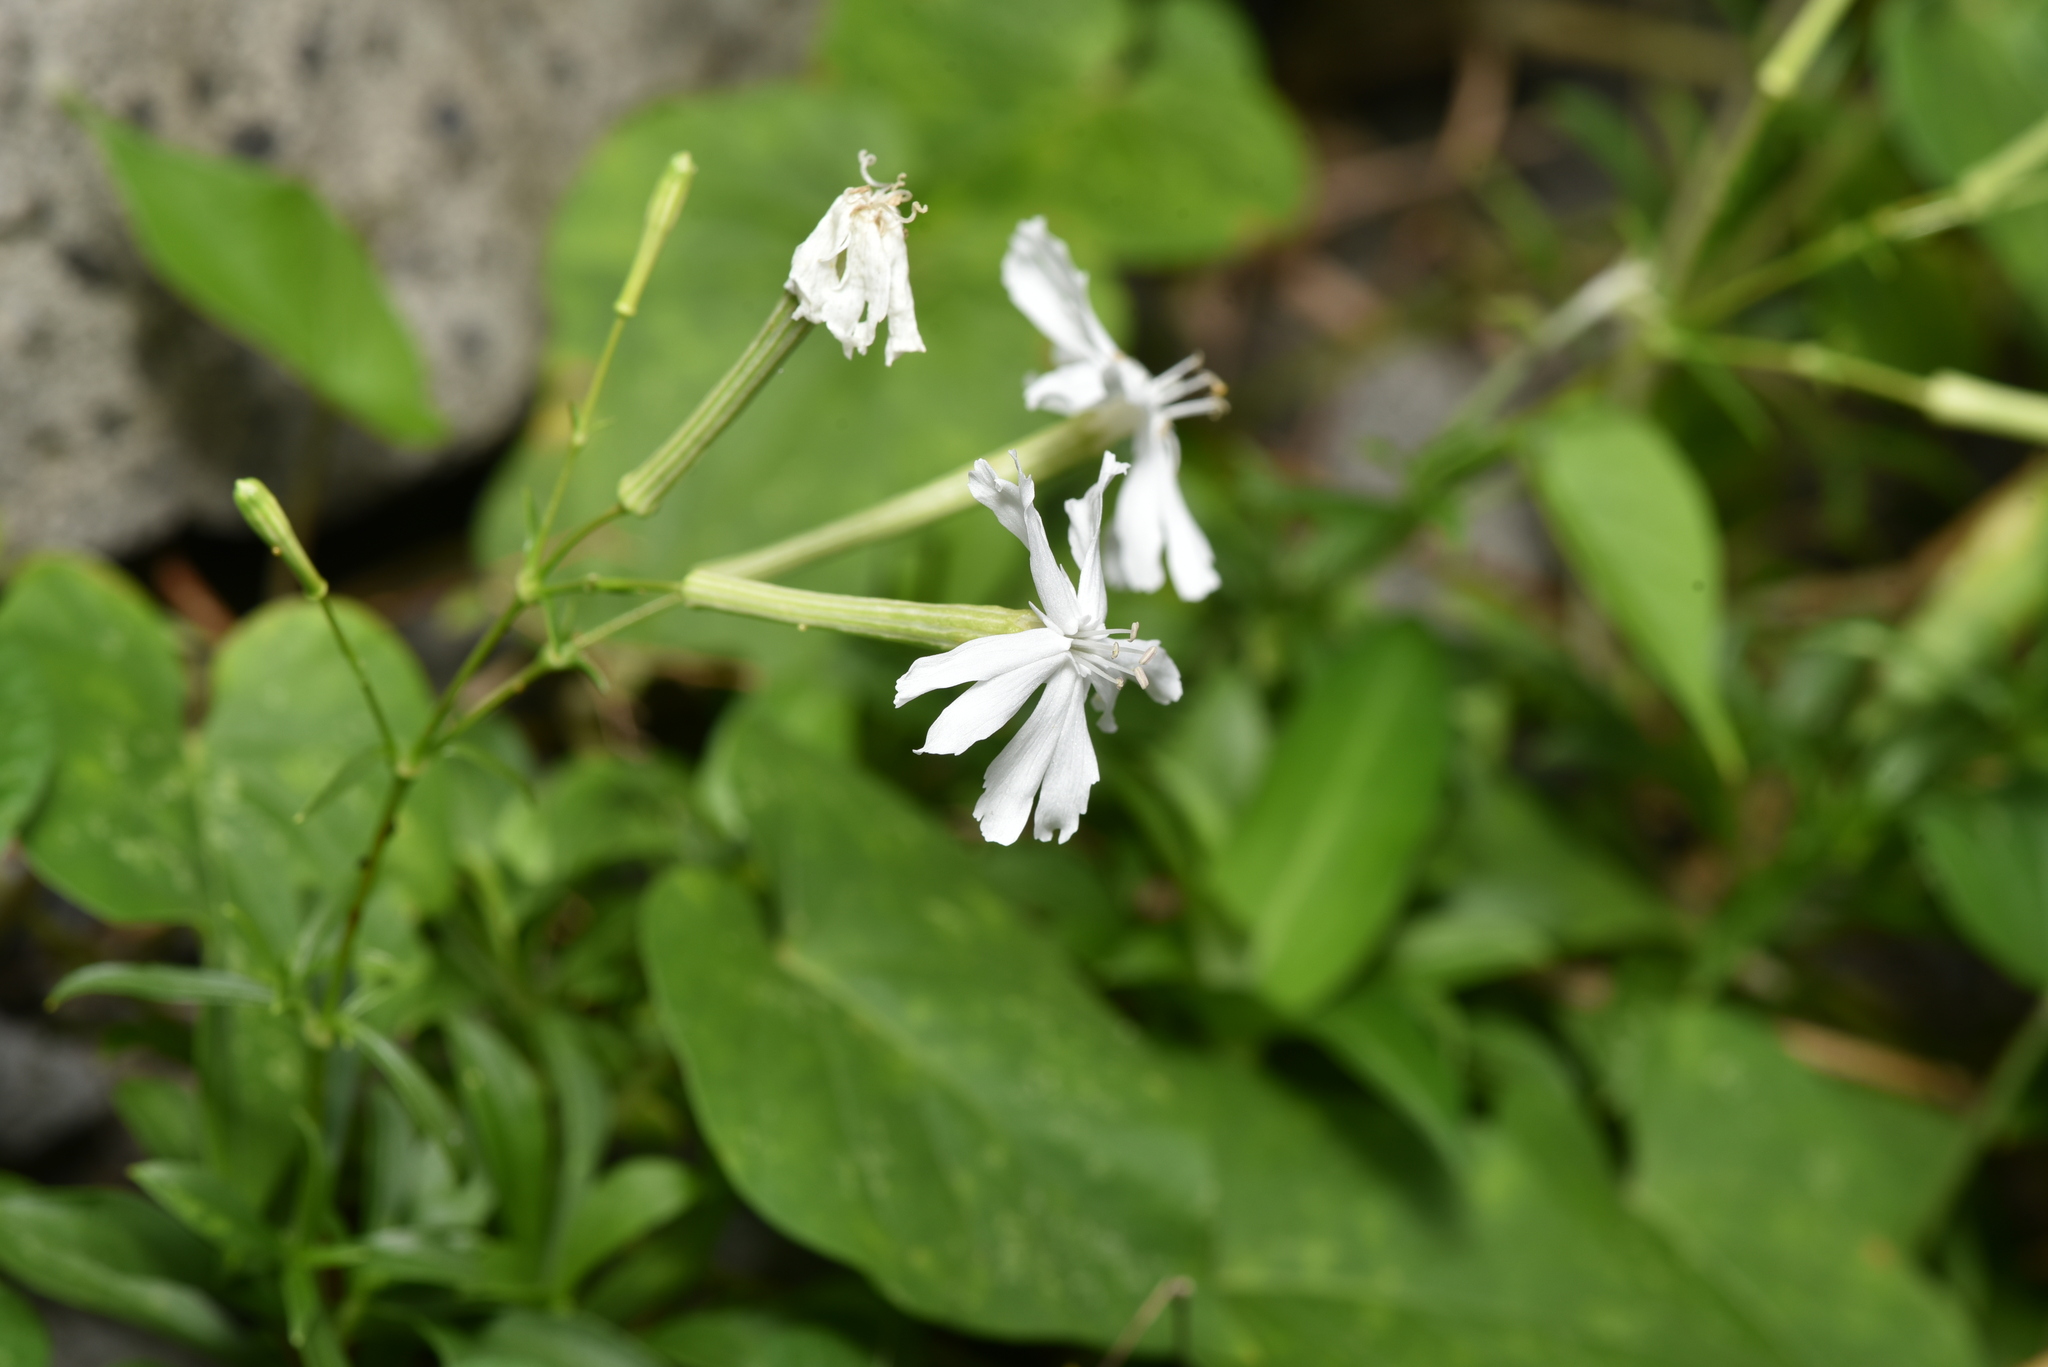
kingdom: Plantae
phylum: Tracheophyta
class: Magnoliopsida
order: Caryophyllales
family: Caryophyllaceae
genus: Silene
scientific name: Silene fissipetala
